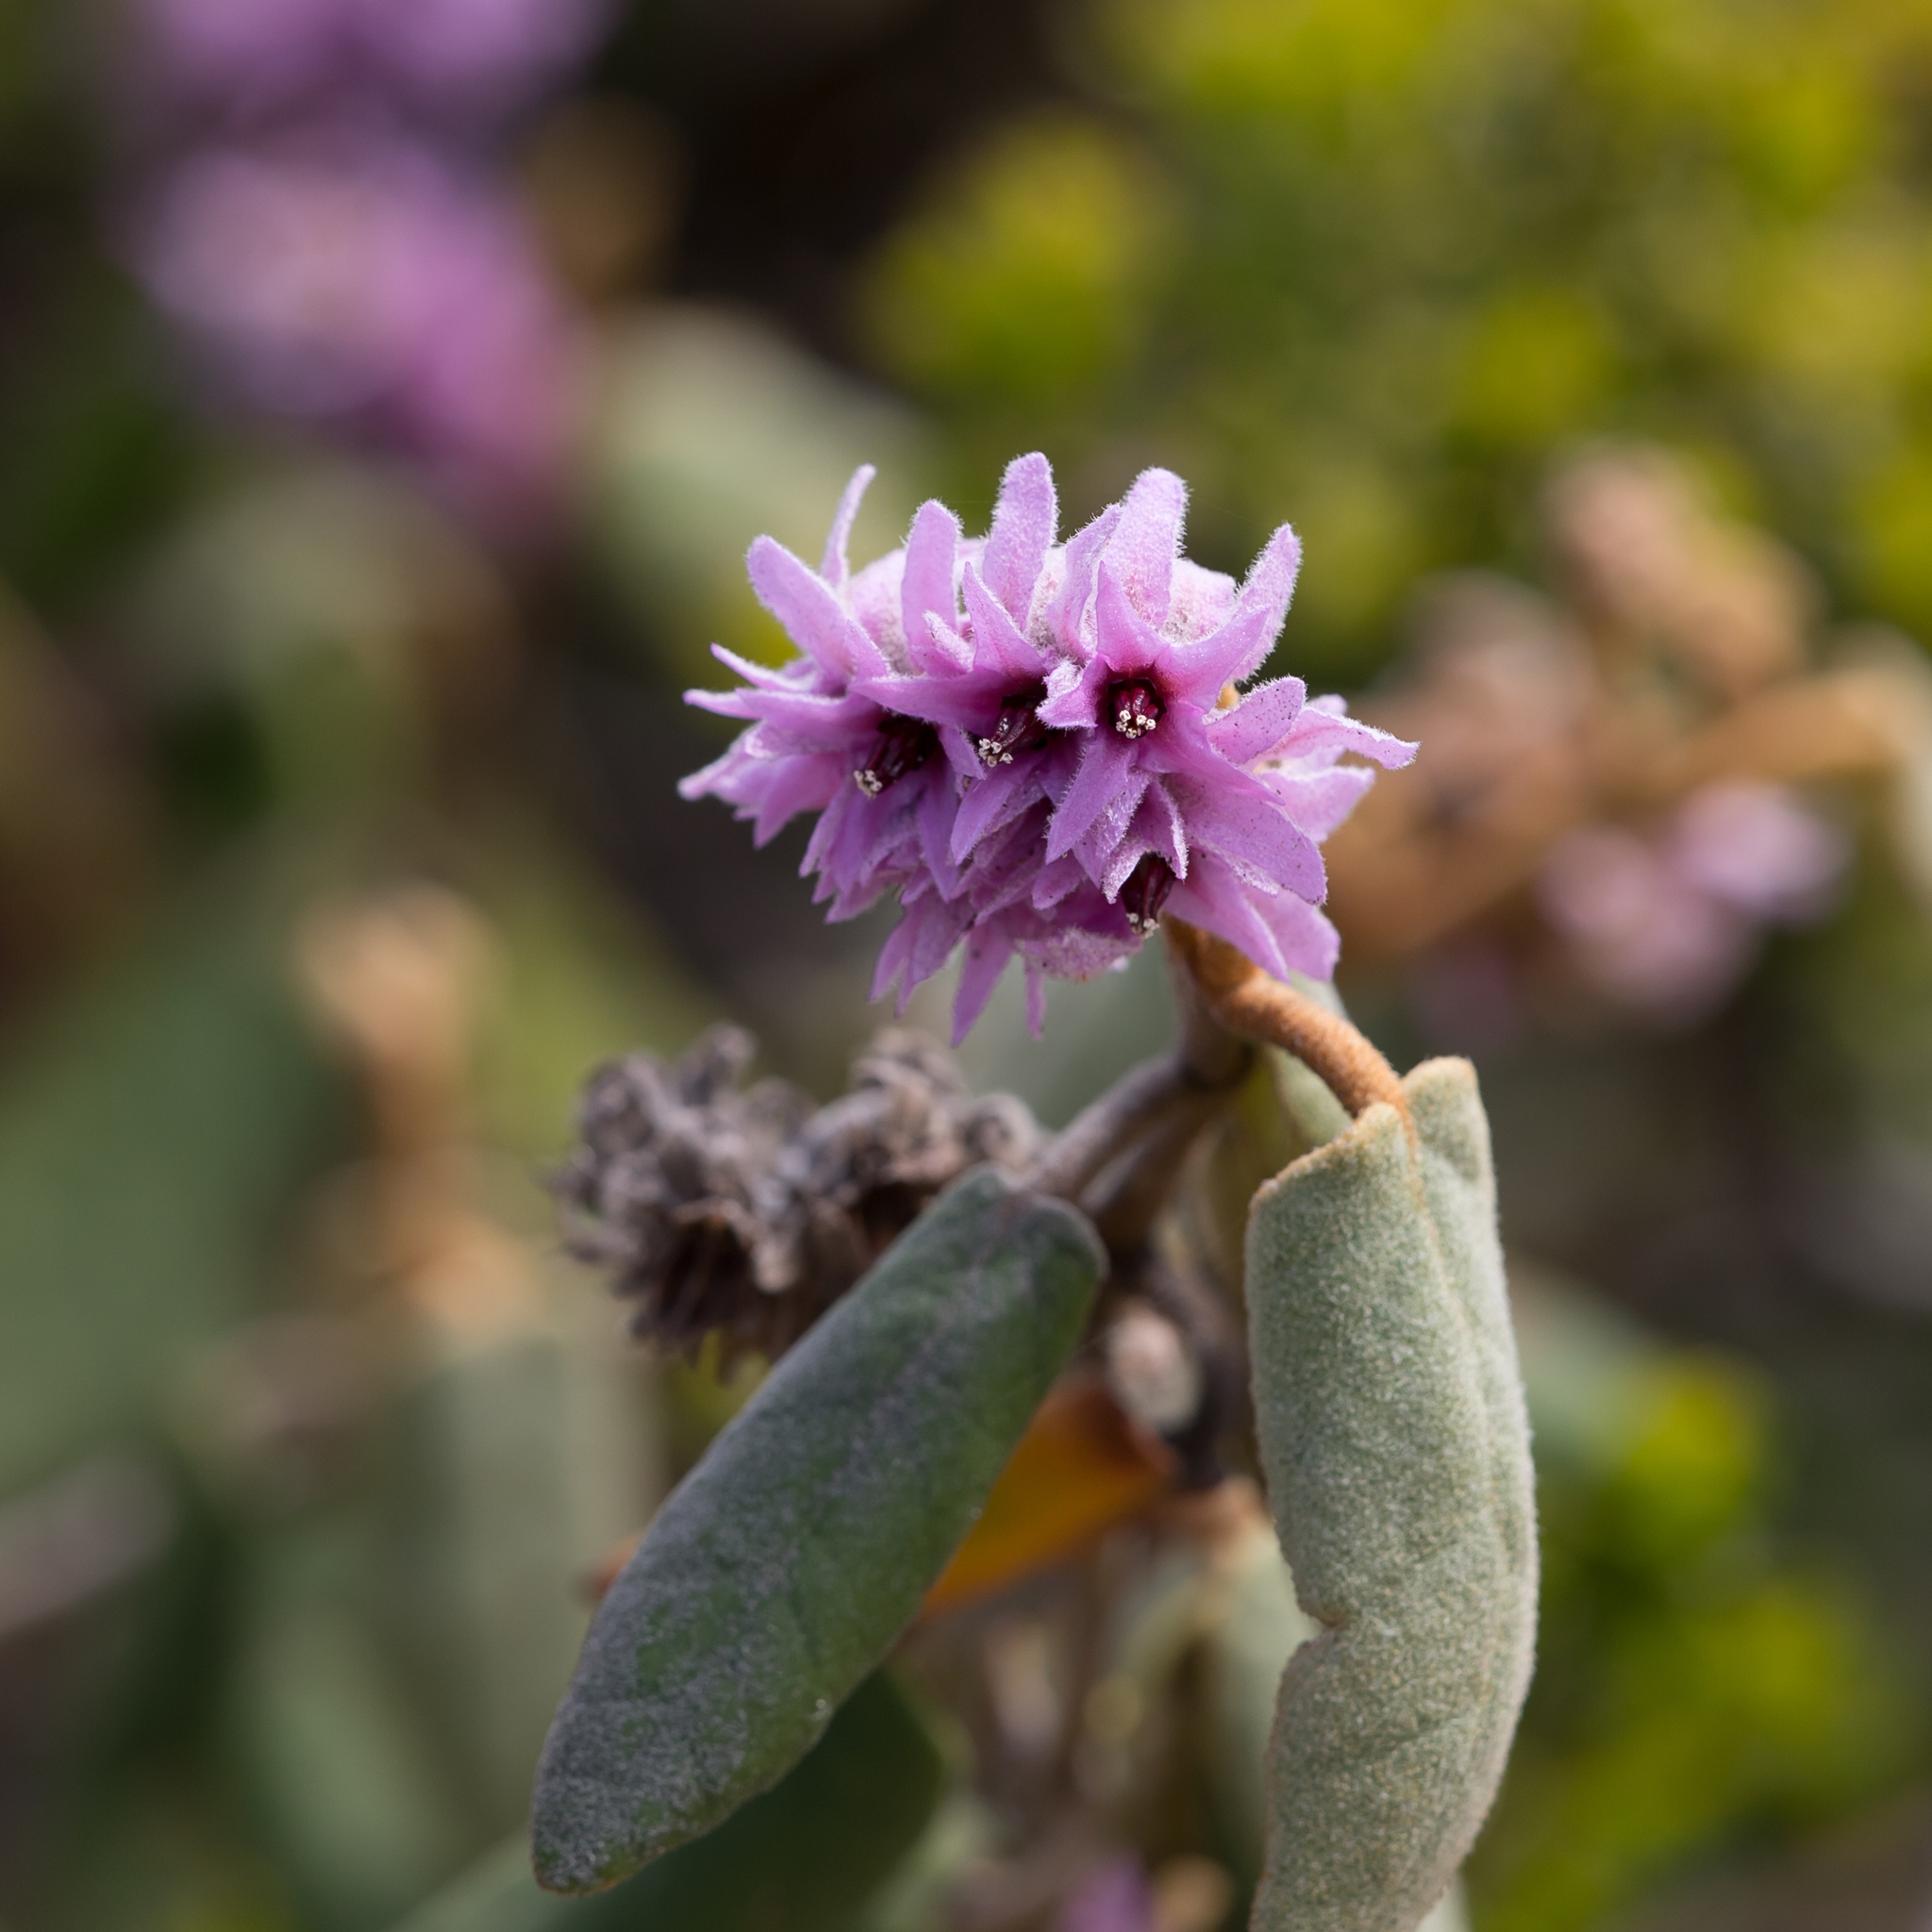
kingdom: Plantae
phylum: Tracheophyta
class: Magnoliopsida
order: Malvales
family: Malvaceae
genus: Lasiopetalum
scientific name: Lasiopetalum discolor
